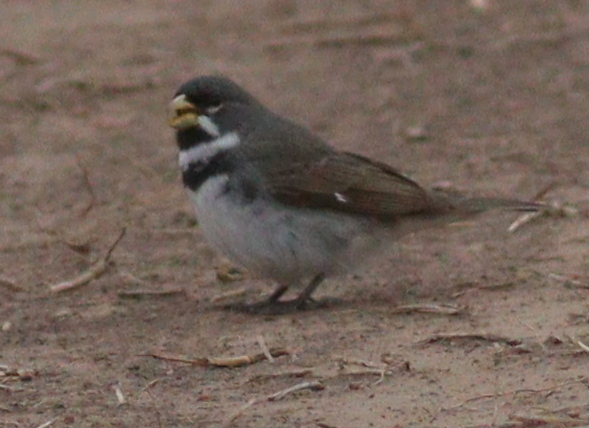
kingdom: Animalia
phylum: Chordata
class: Aves
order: Passeriformes
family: Thraupidae
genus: Sporophila
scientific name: Sporophila caerulescens
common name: Double-collared seedeater
